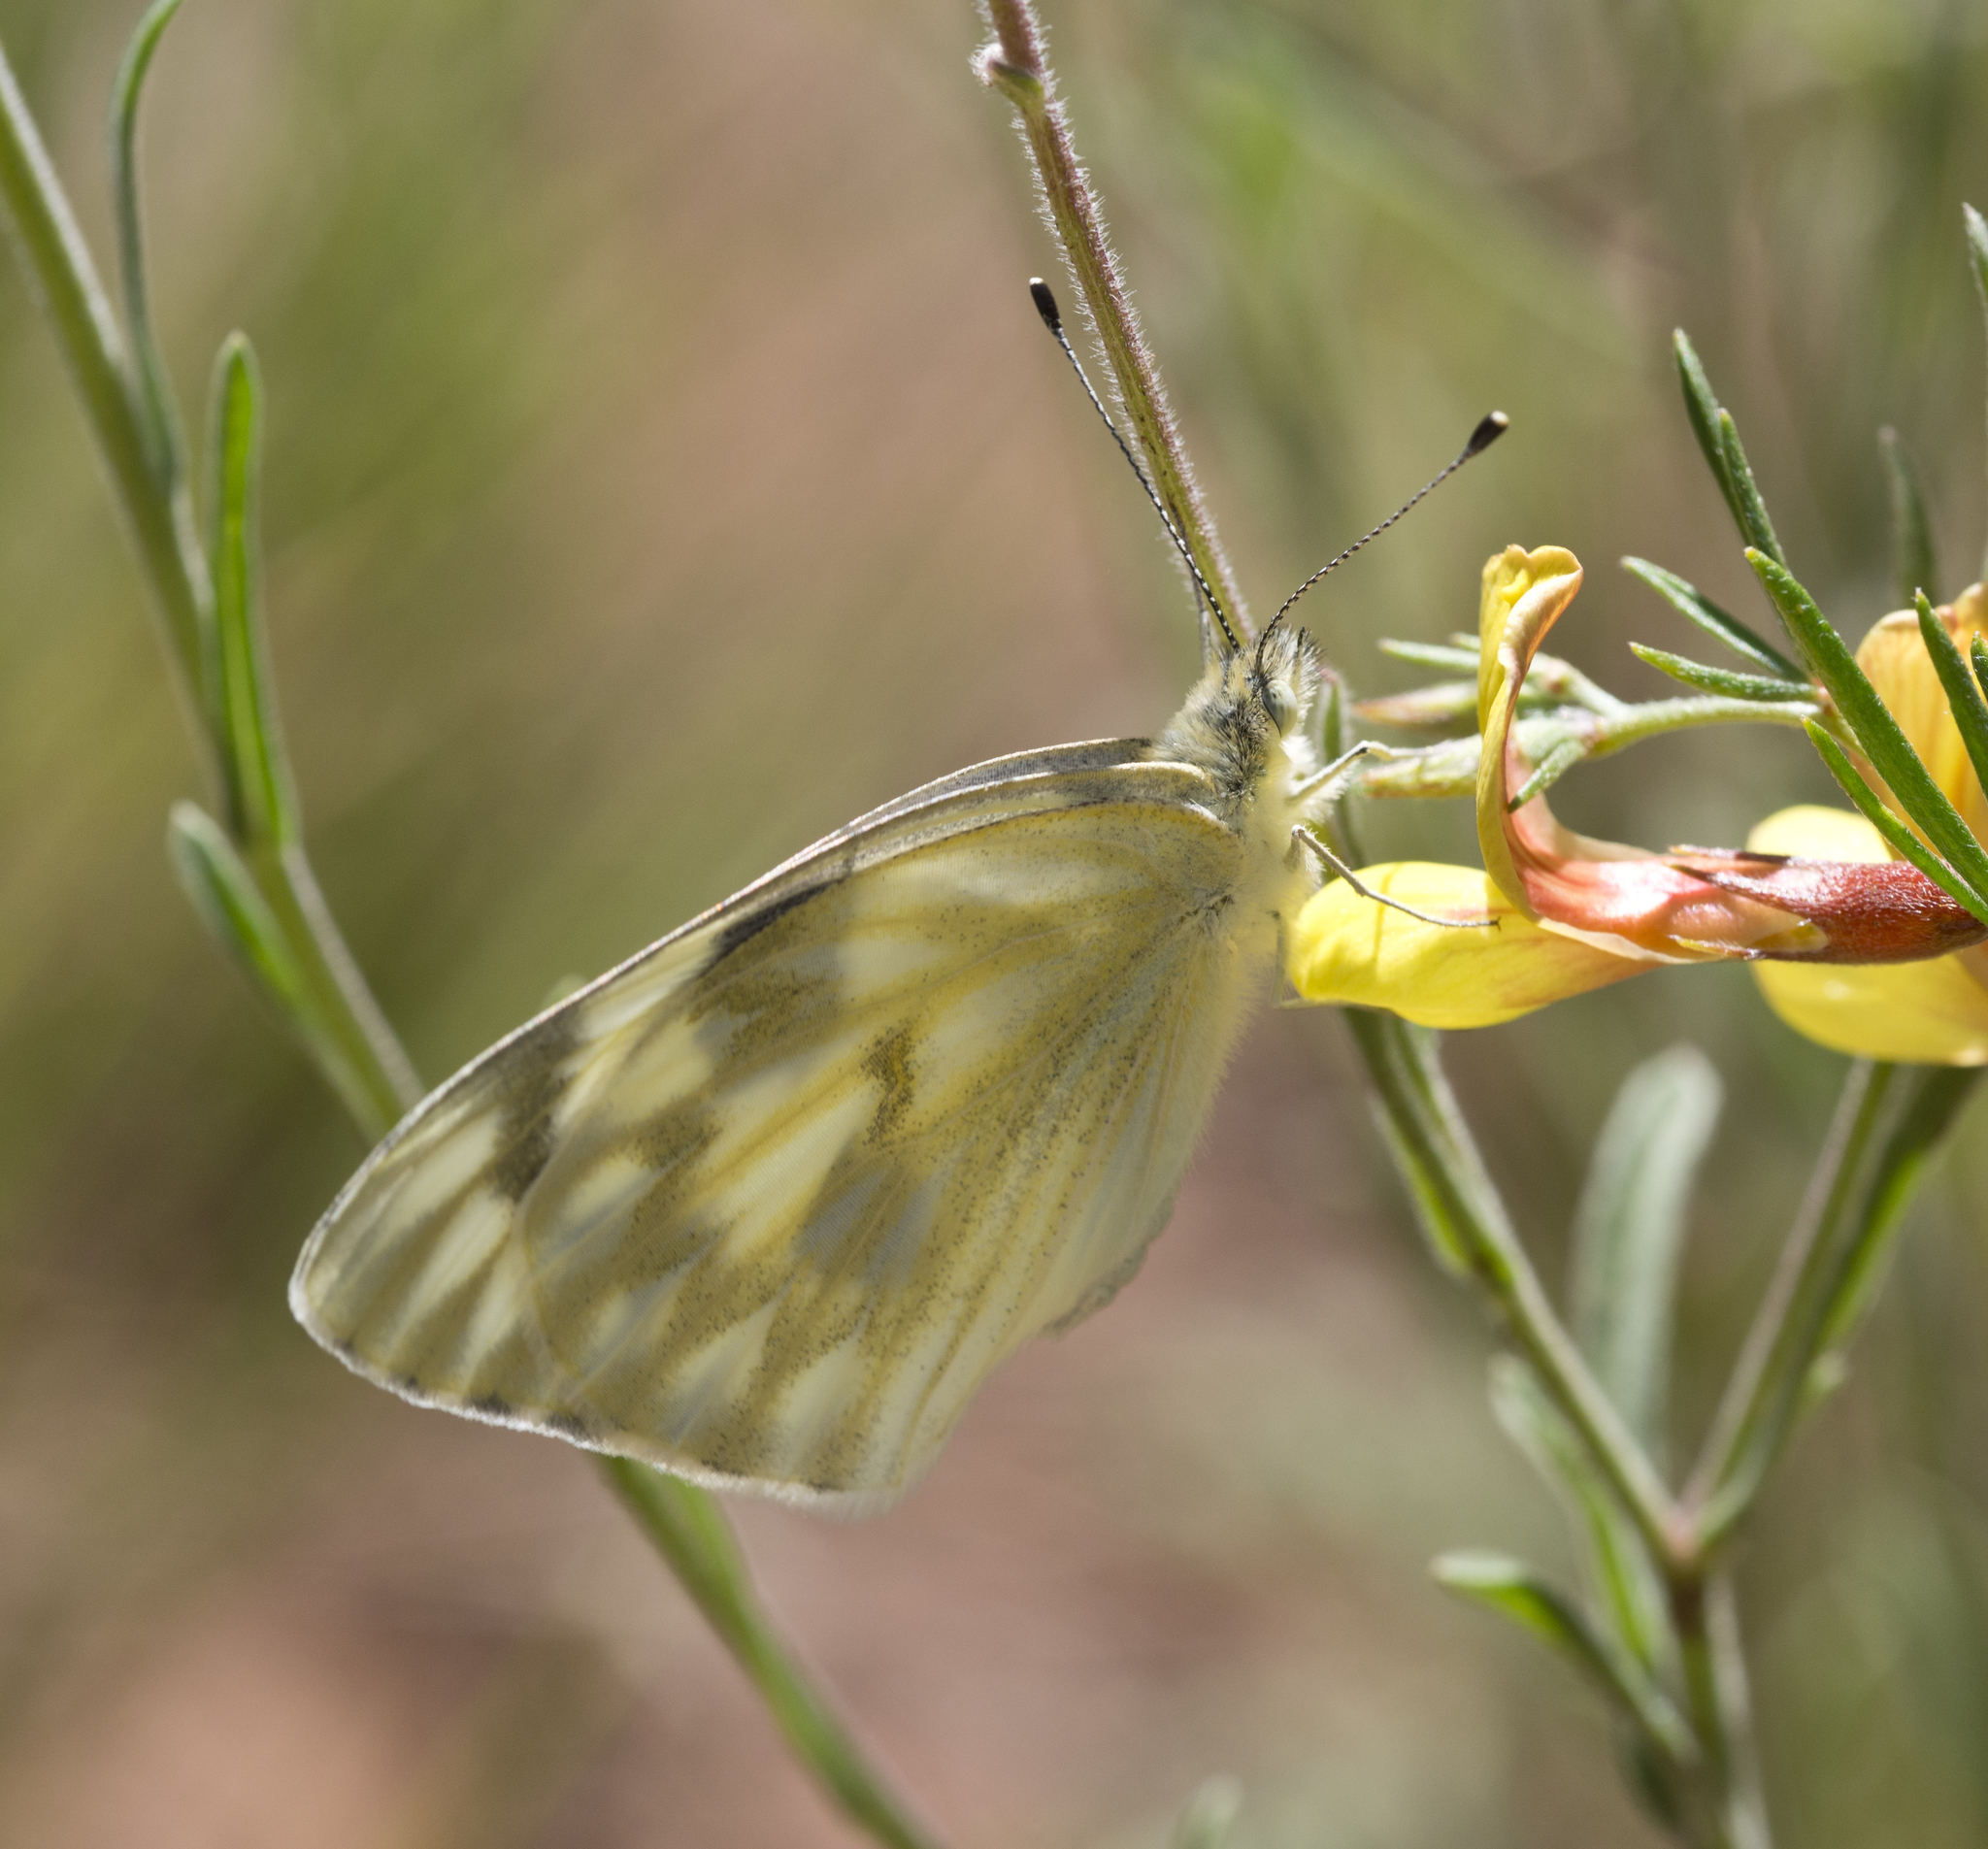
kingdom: Animalia
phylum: Arthropoda
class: Insecta
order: Lepidoptera
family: Pieridae
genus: Pontia
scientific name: Pontia protodice
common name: Checkered white
